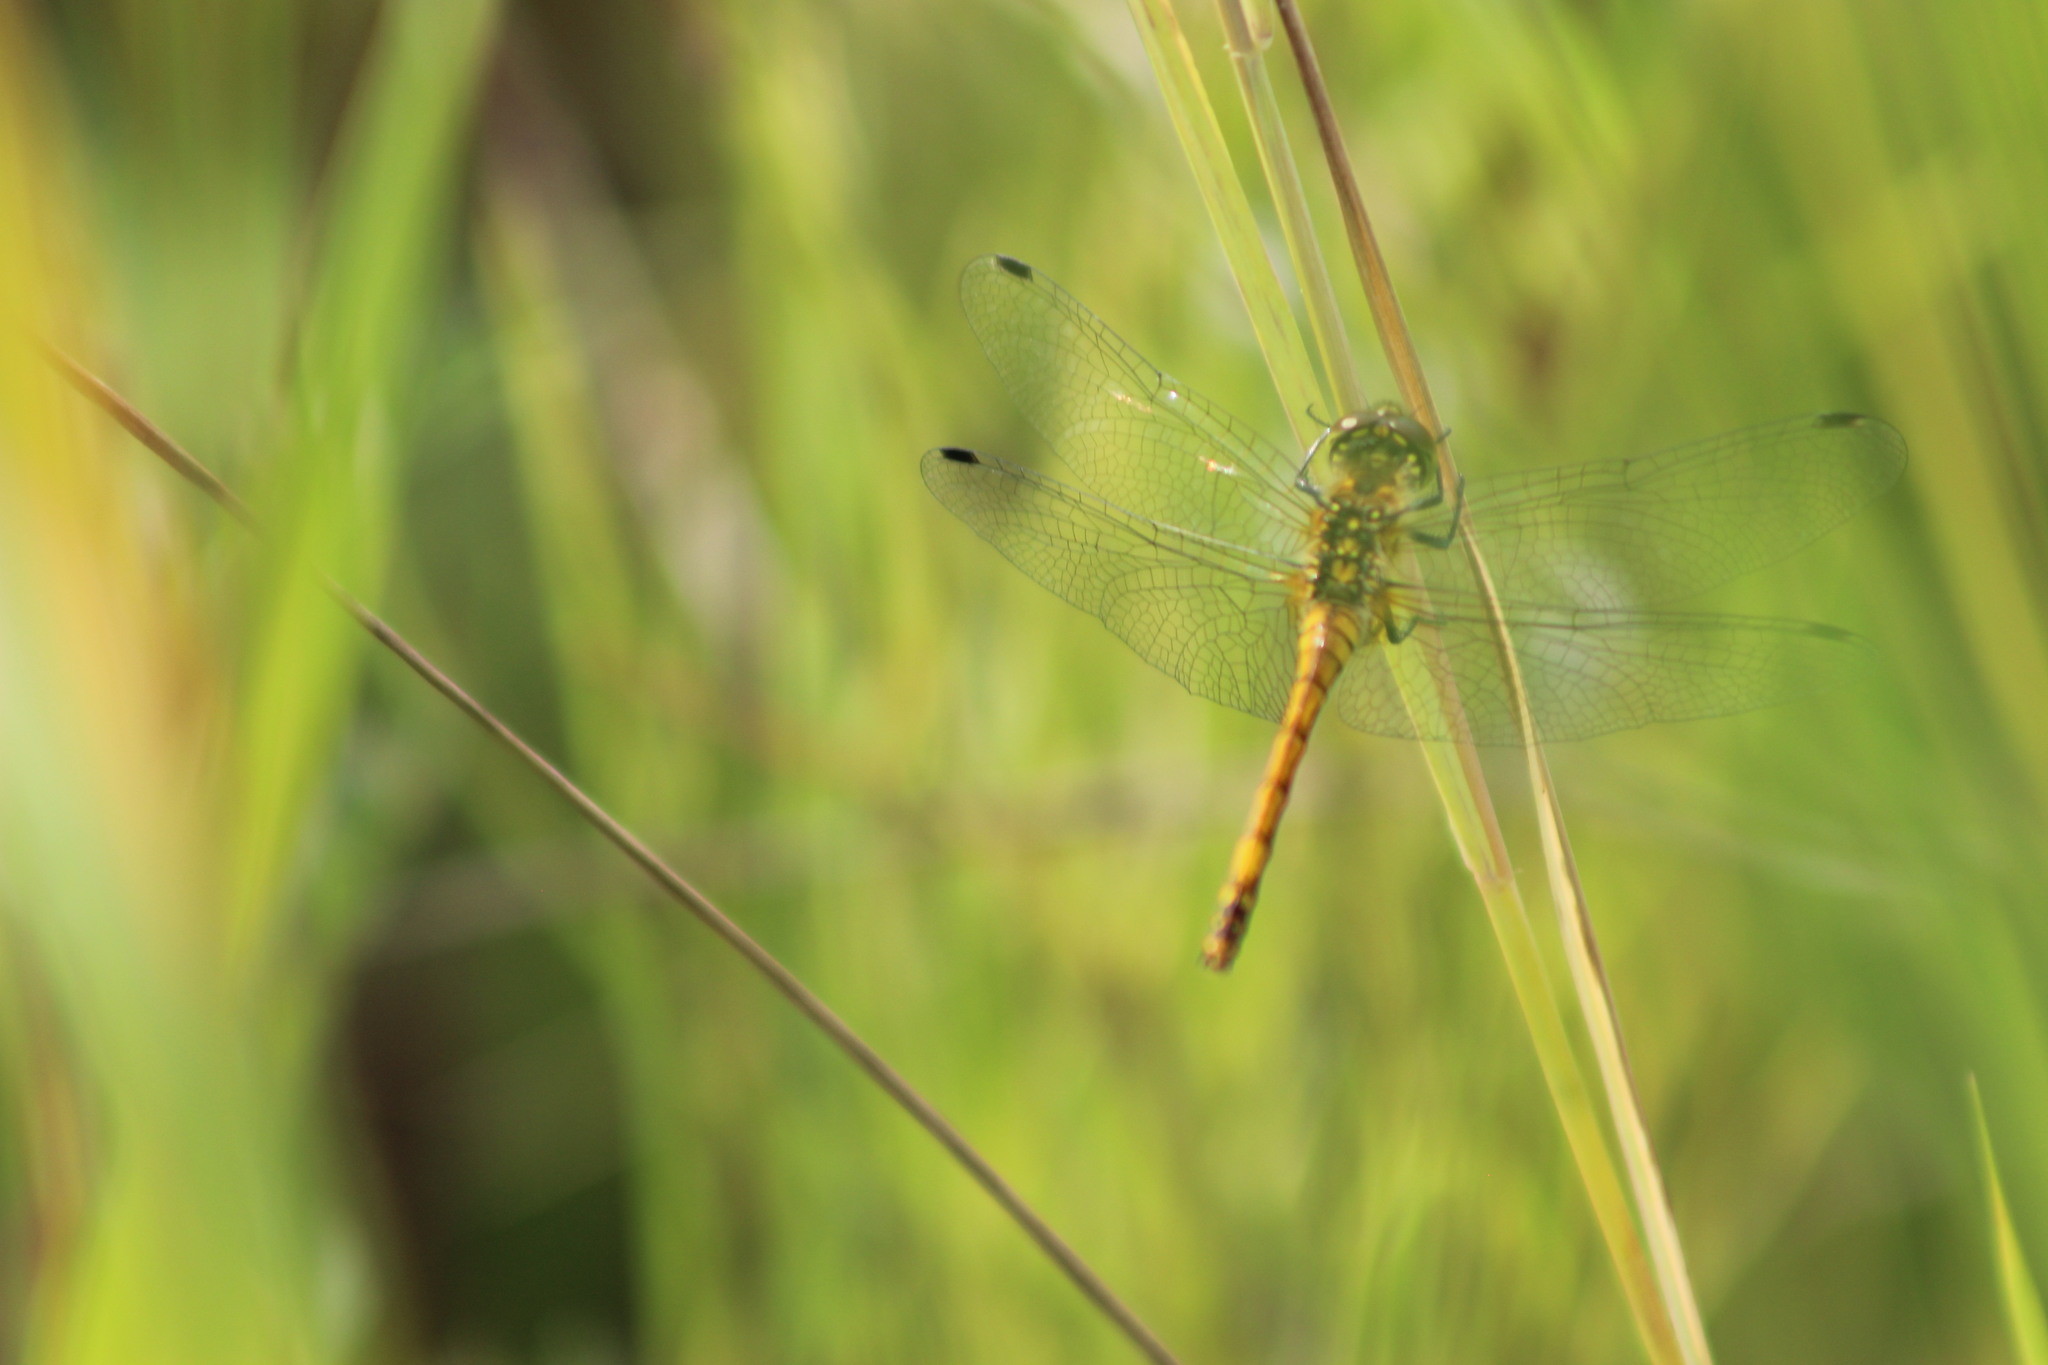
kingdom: Animalia
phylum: Arthropoda
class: Insecta
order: Odonata
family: Libellulidae
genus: Sympetrum
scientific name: Sympetrum danae
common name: Black darter
